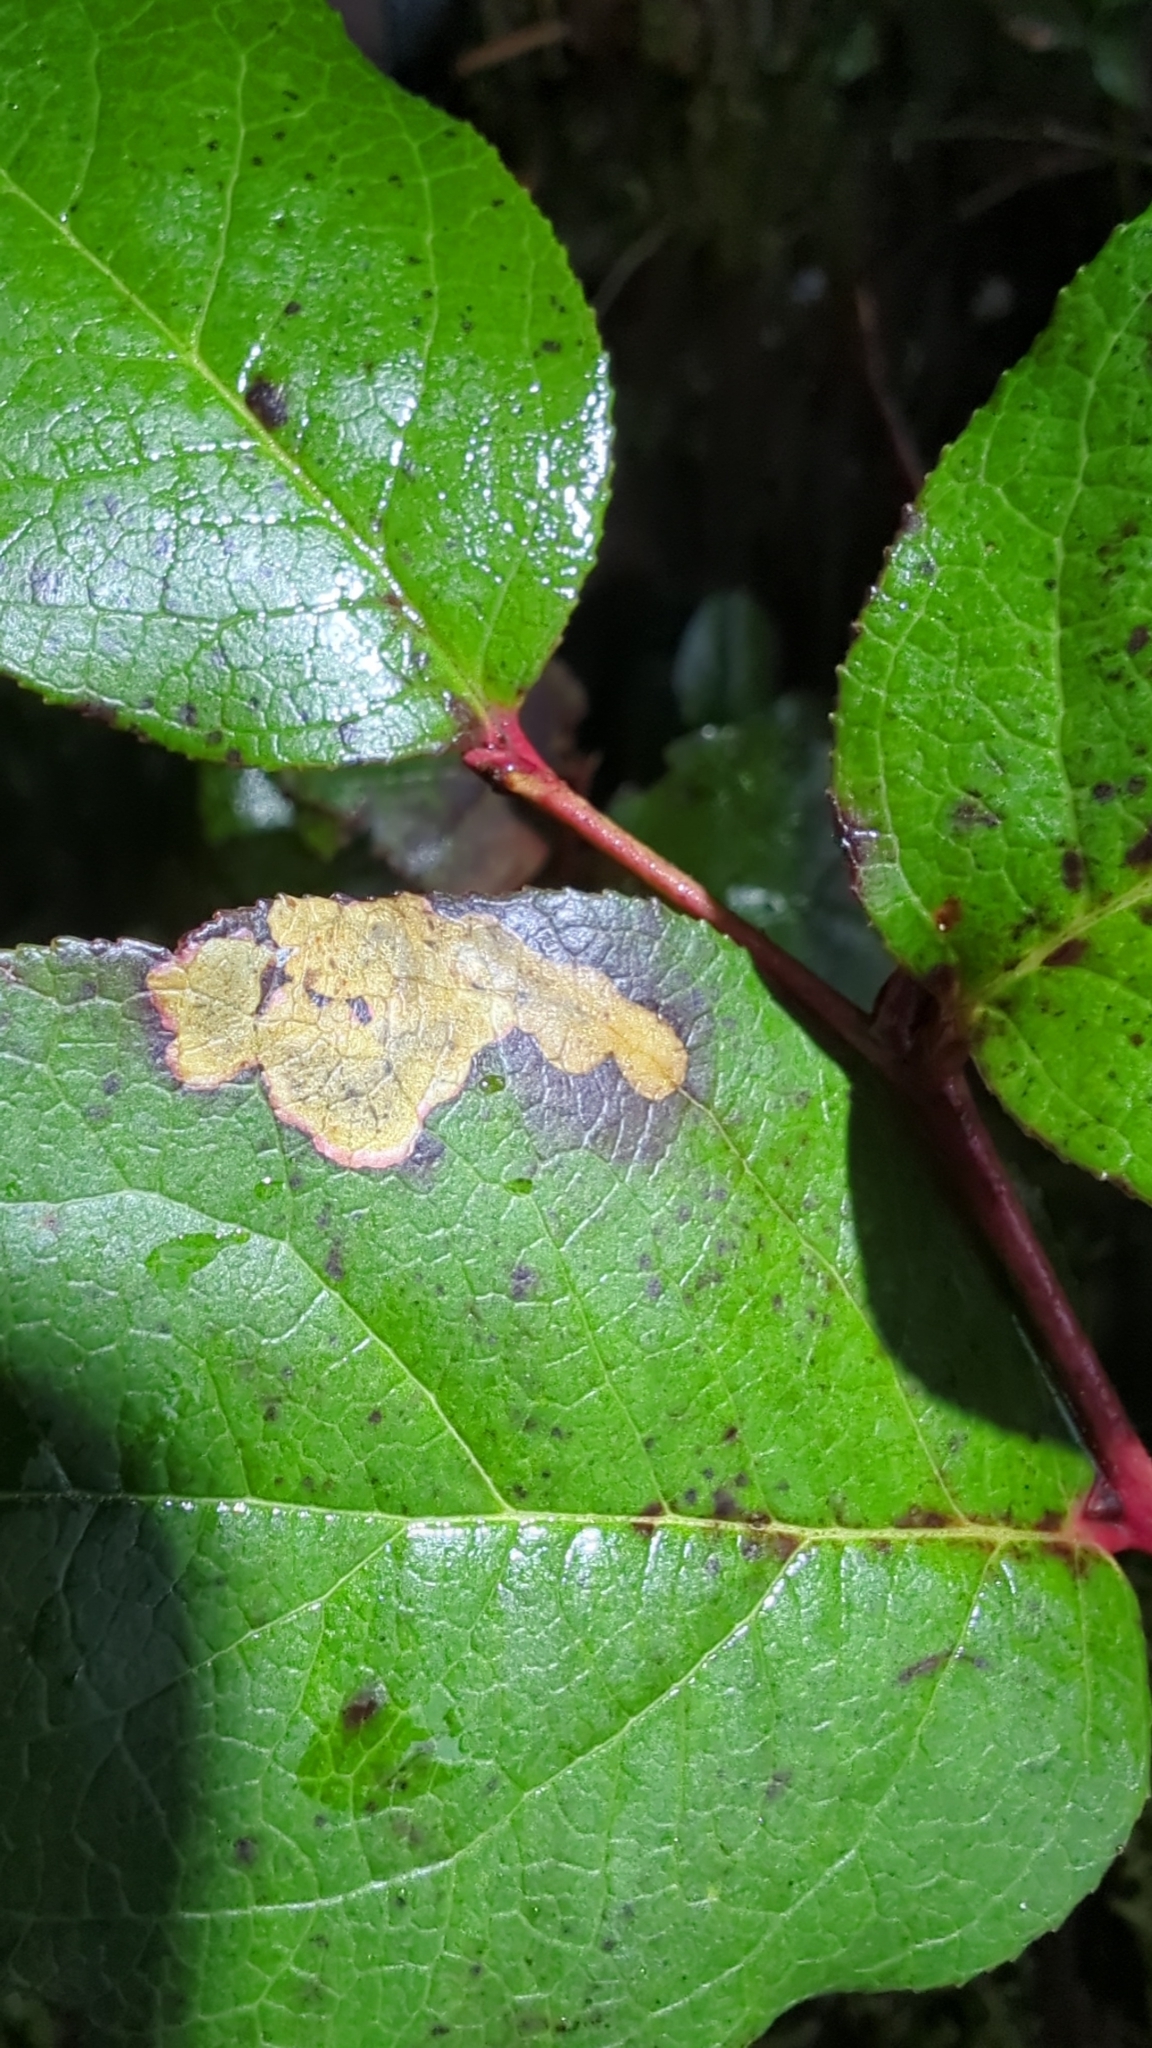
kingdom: Animalia
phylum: Arthropoda
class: Insecta
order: Lepidoptera
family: Gracillariidae
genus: Cameraria
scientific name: Cameraria gaultheriella
